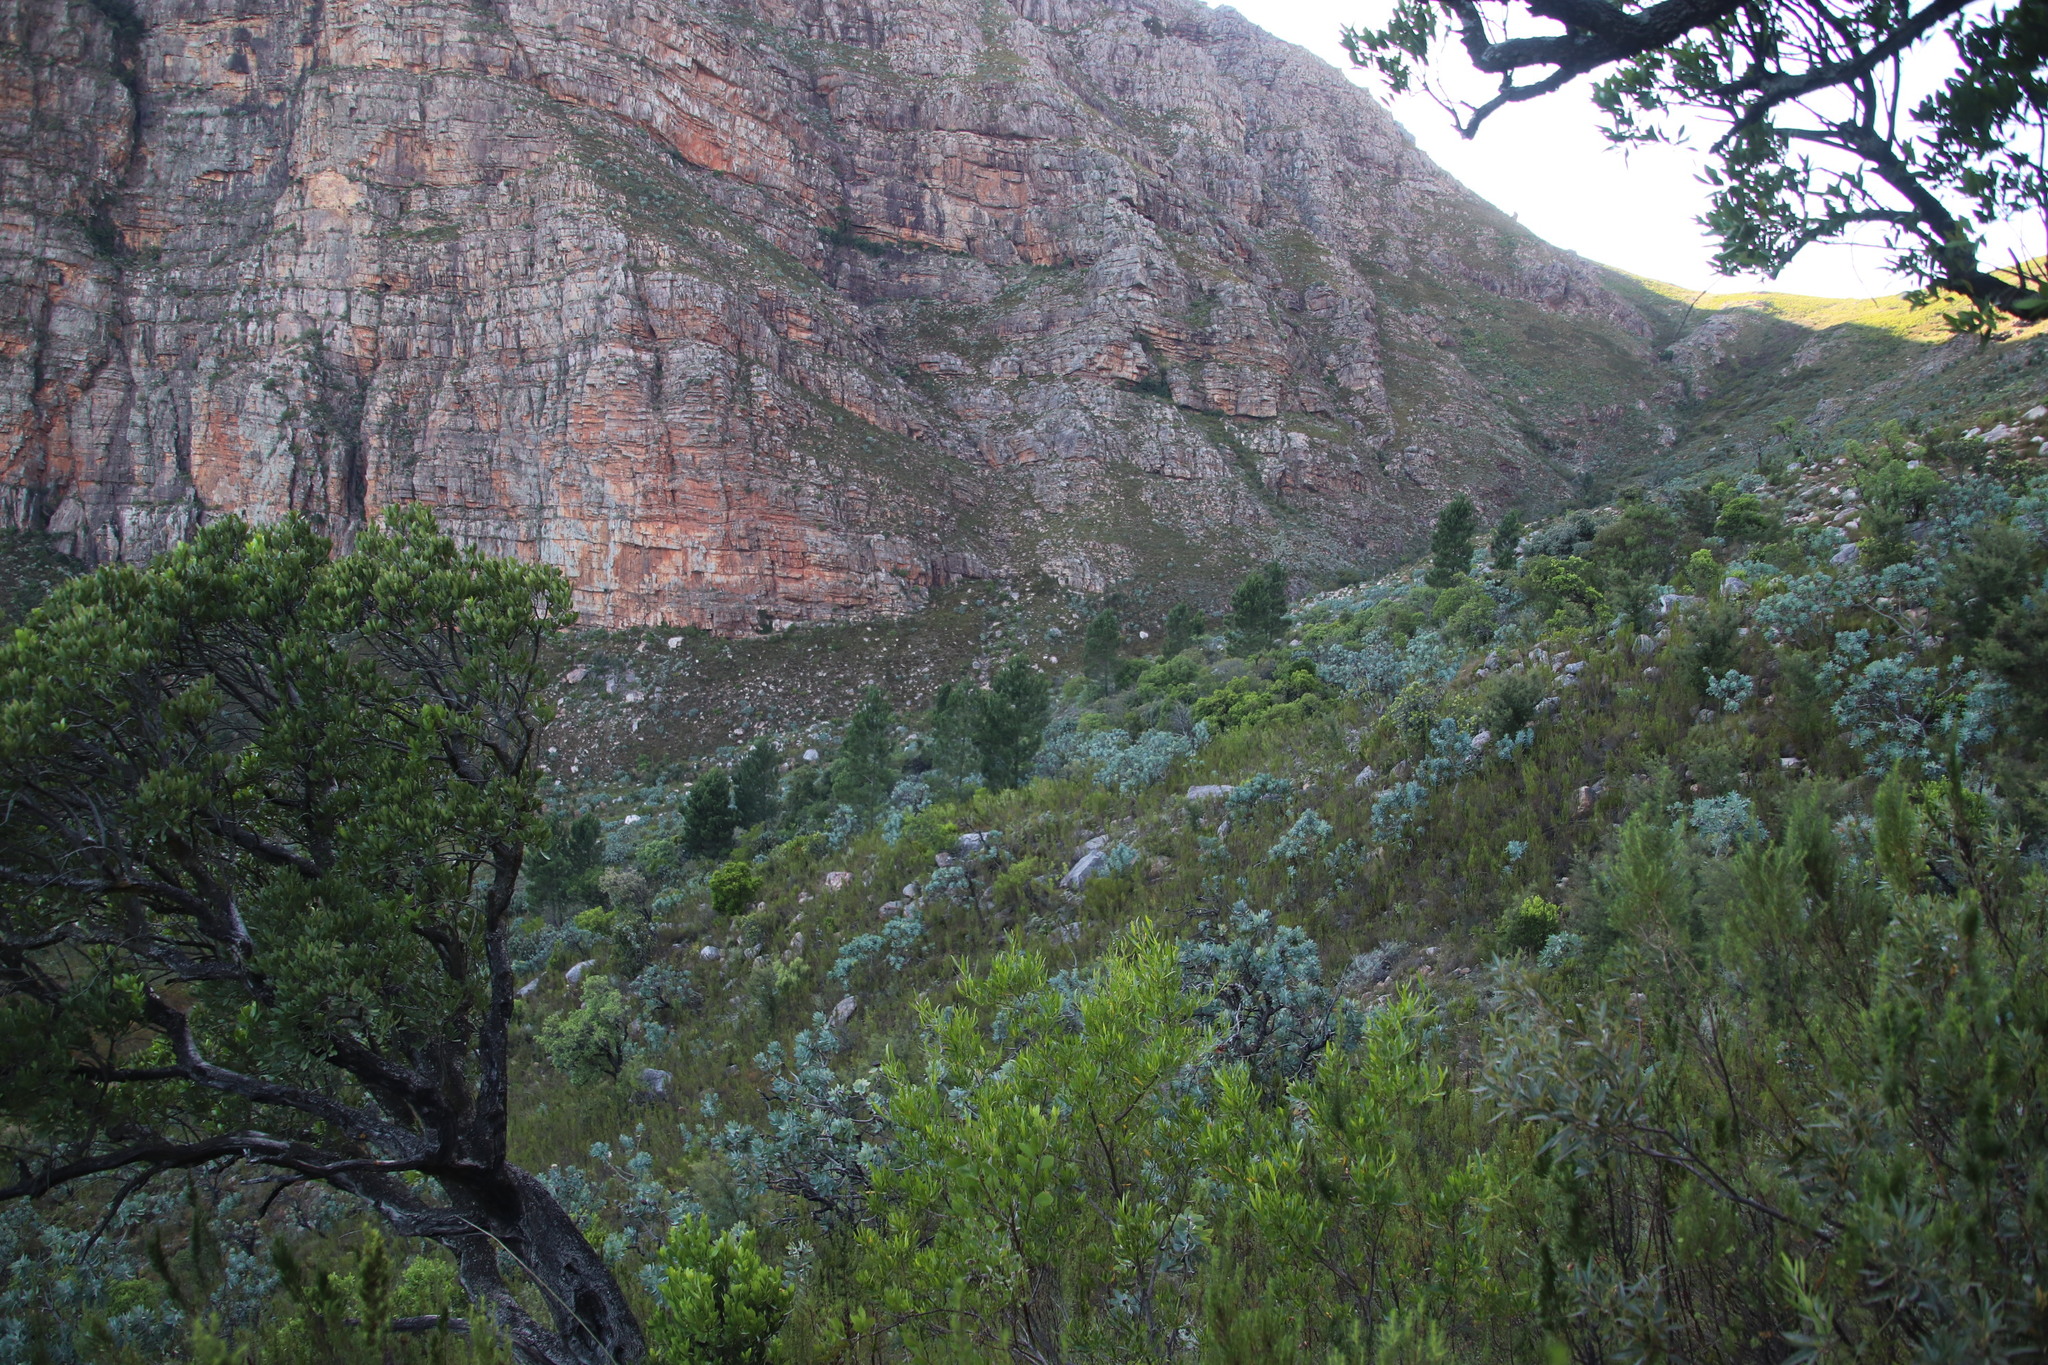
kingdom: Plantae
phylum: Tracheophyta
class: Pinopsida
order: Pinales
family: Pinaceae
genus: Pinus
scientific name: Pinus pinaster
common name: Maritime pine
